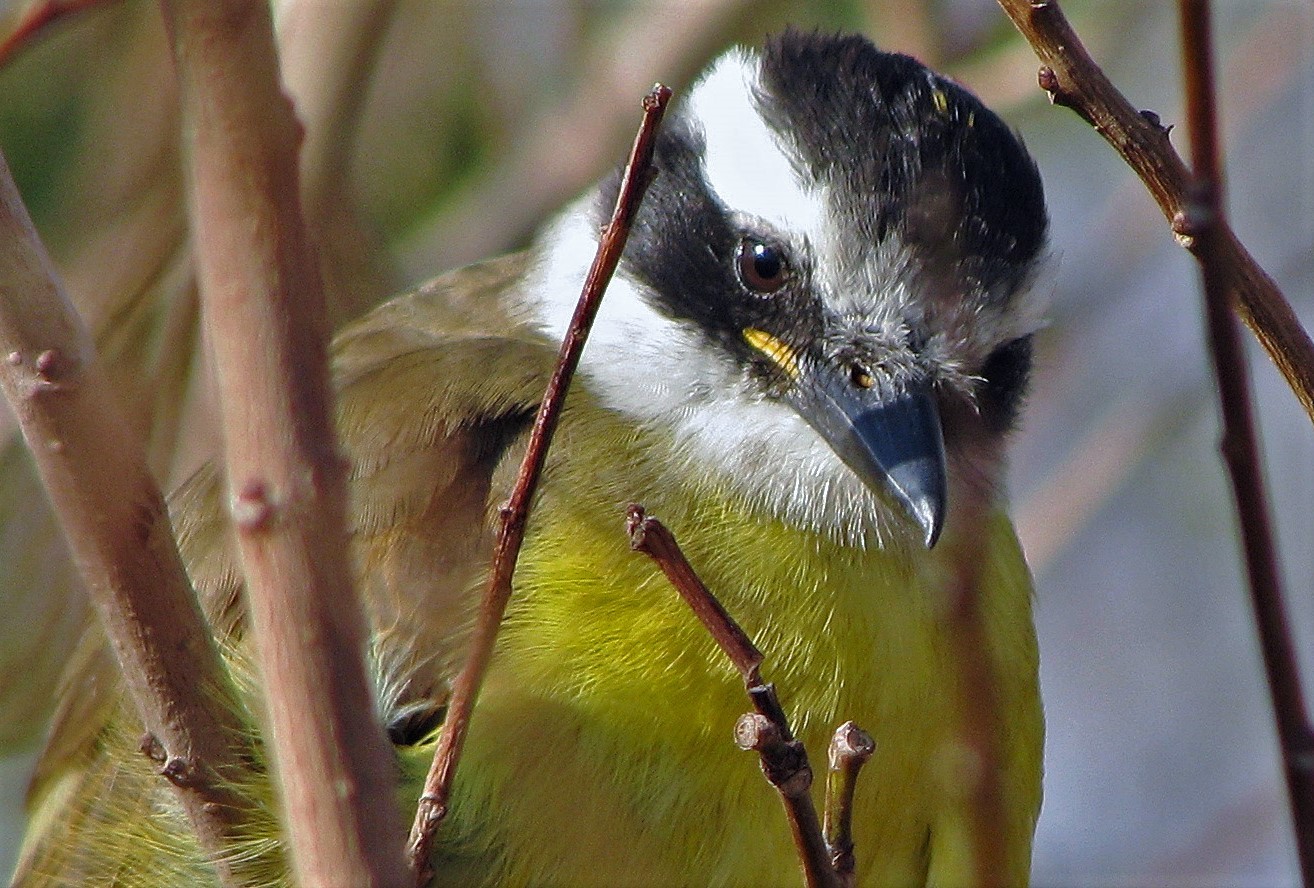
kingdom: Animalia
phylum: Chordata
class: Aves
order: Passeriformes
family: Tyrannidae
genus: Pitangus
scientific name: Pitangus sulphuratus
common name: Great kiskadee
